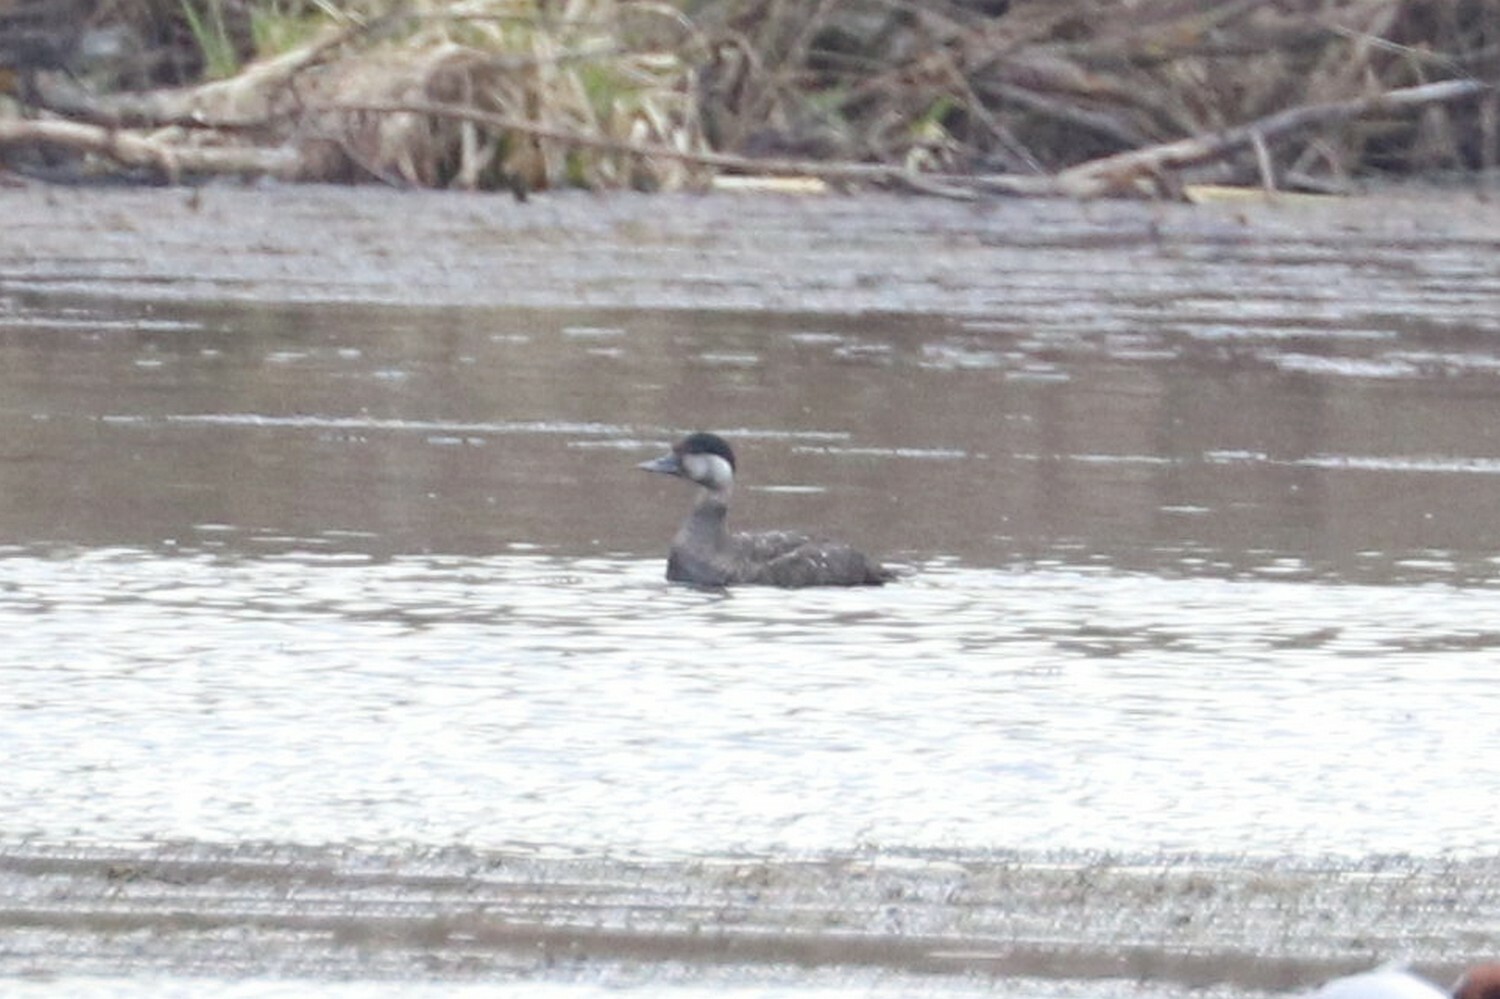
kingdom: Animalia
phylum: Chordata
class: Aves
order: Anseriformes
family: Anatidae
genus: Melanitta
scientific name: Melanitta nigra
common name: Common scoter
